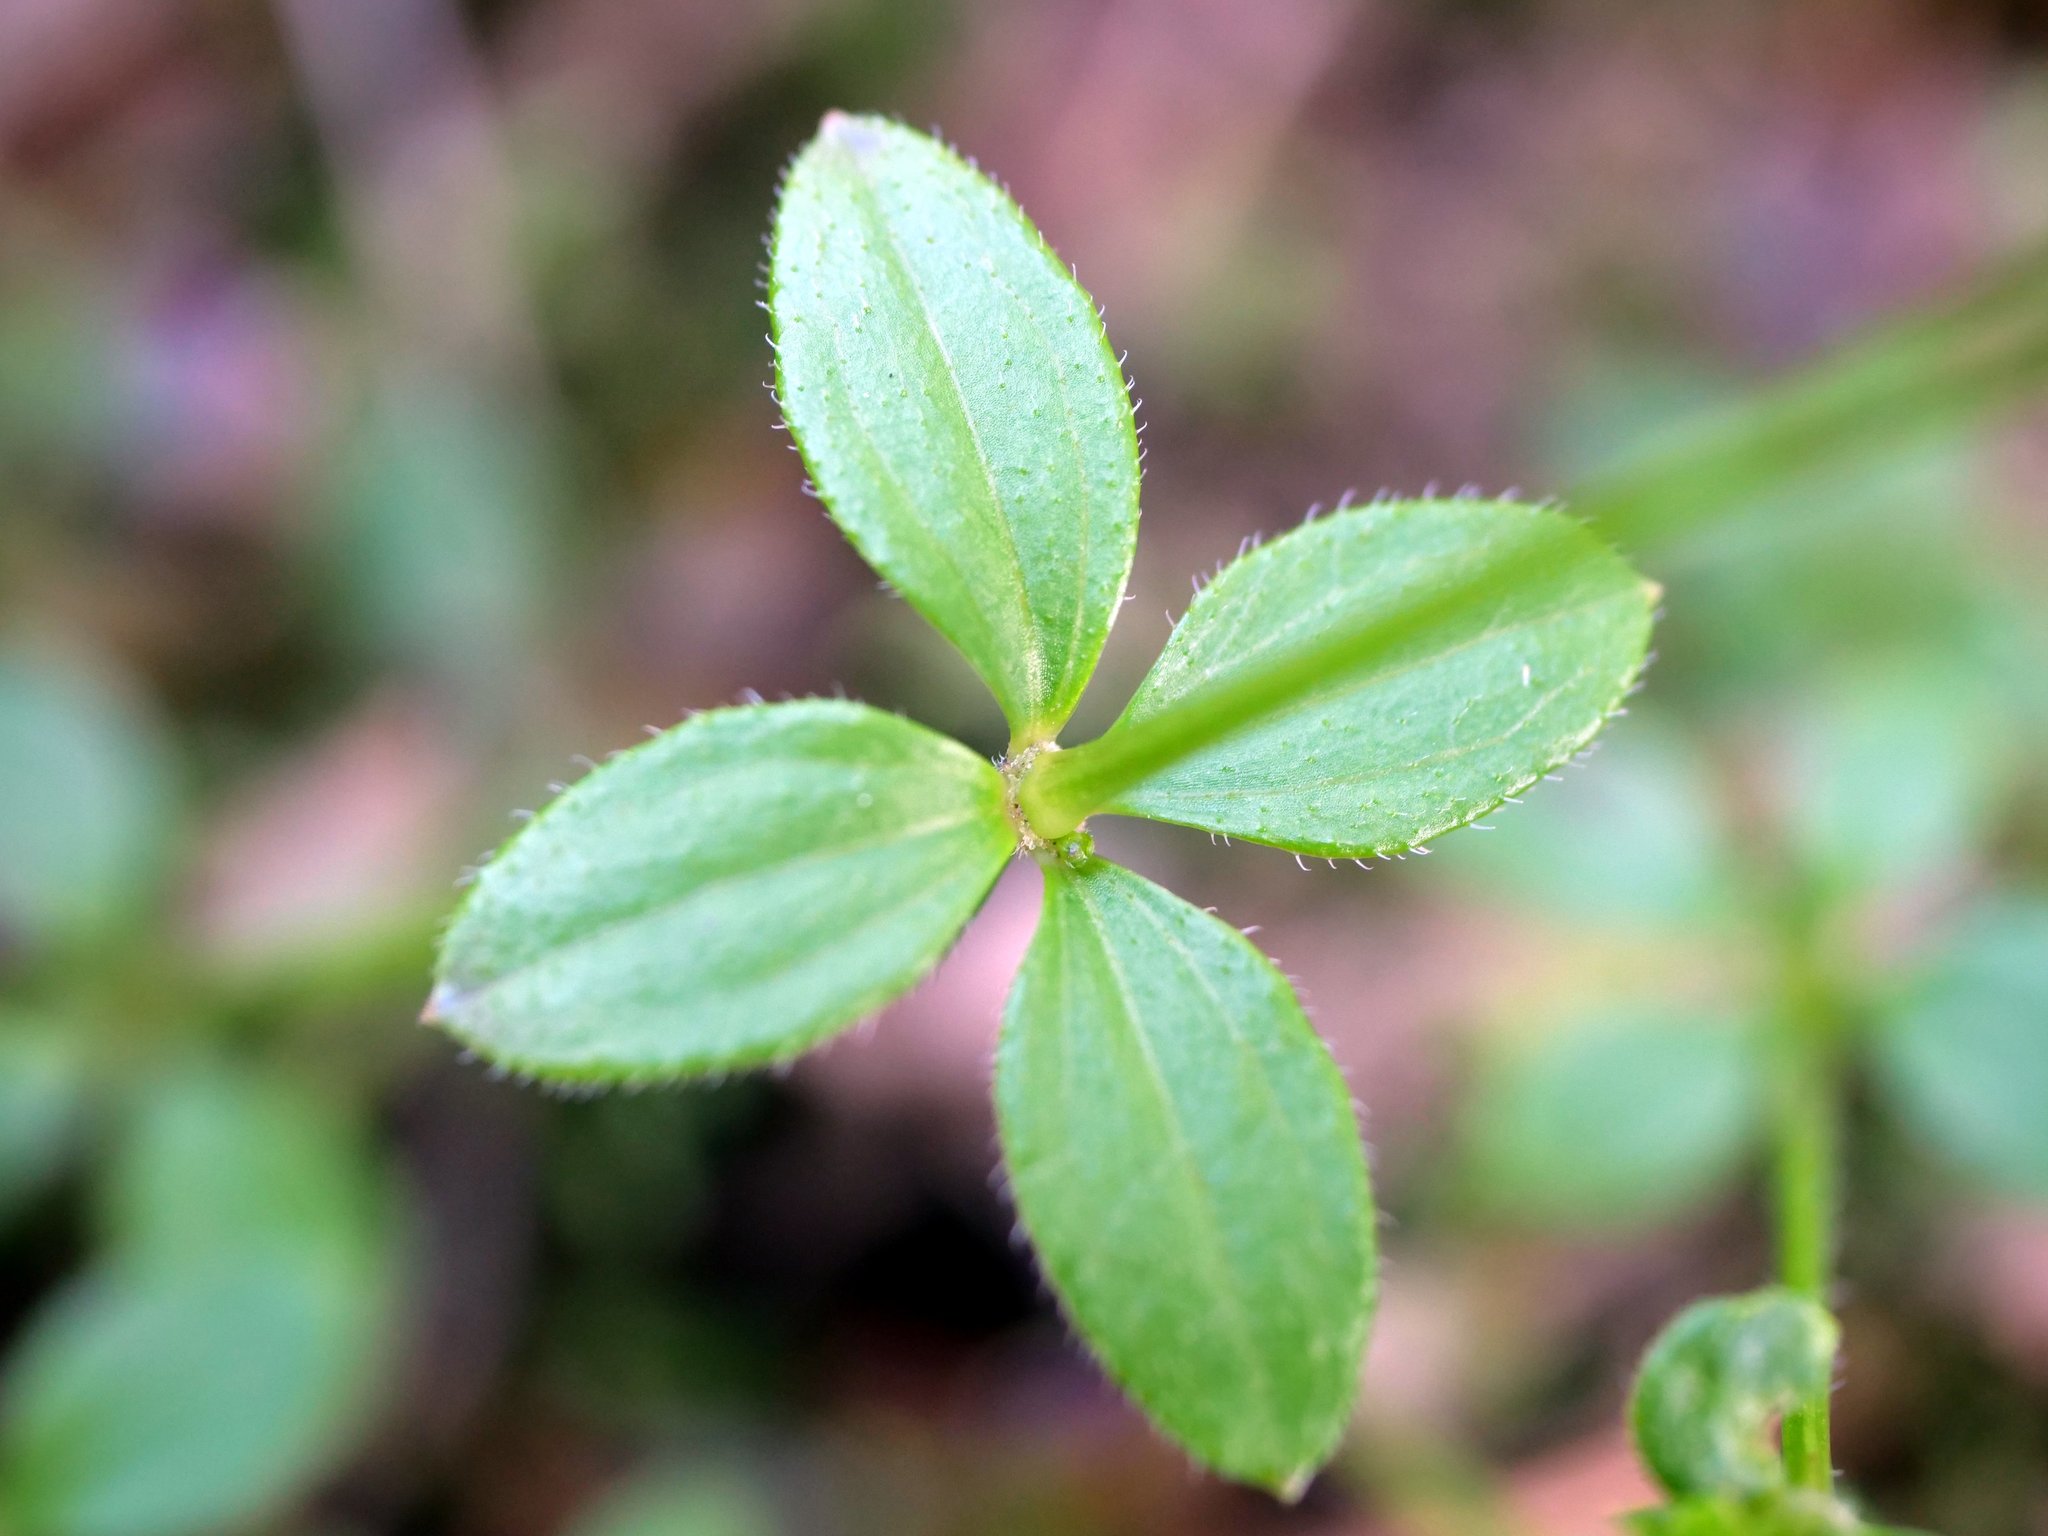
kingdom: Plantae
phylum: Tracheophyta
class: Magnoliopsida
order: Gentianales
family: Rubiaceae
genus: Galium
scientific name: Galium rotundifolium
